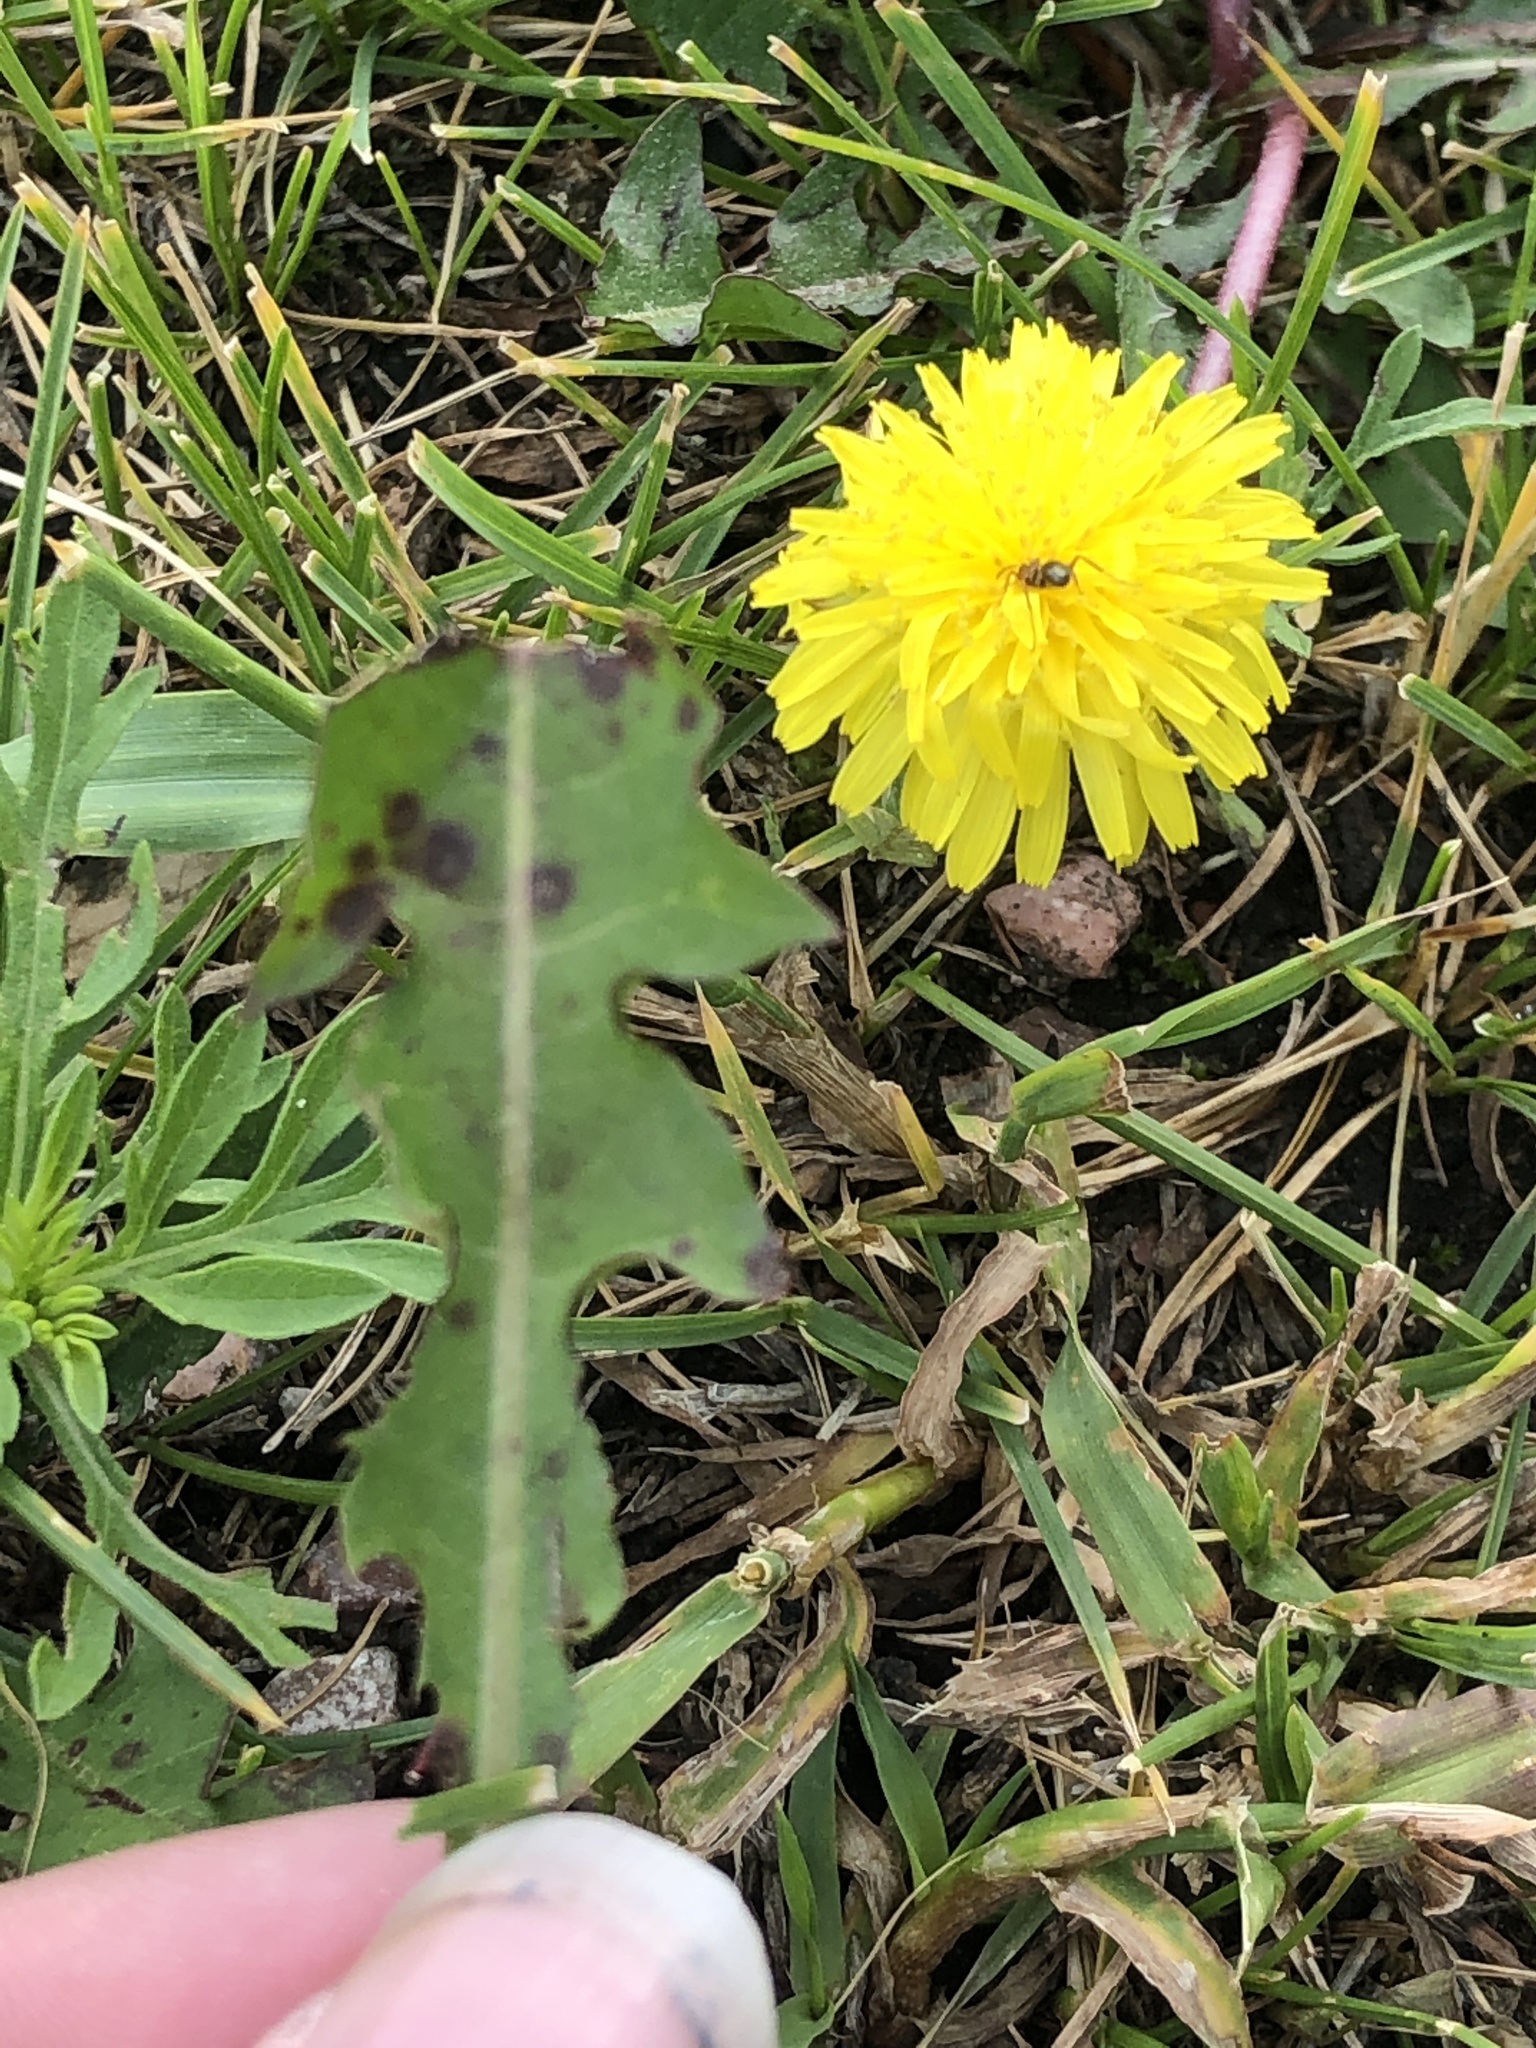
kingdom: Plantae
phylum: Tracheophyta
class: Magnoliopsida
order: Asterales
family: Asteraceae
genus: Taraxacum
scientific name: Taraxacum officinale
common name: Common dandelion
